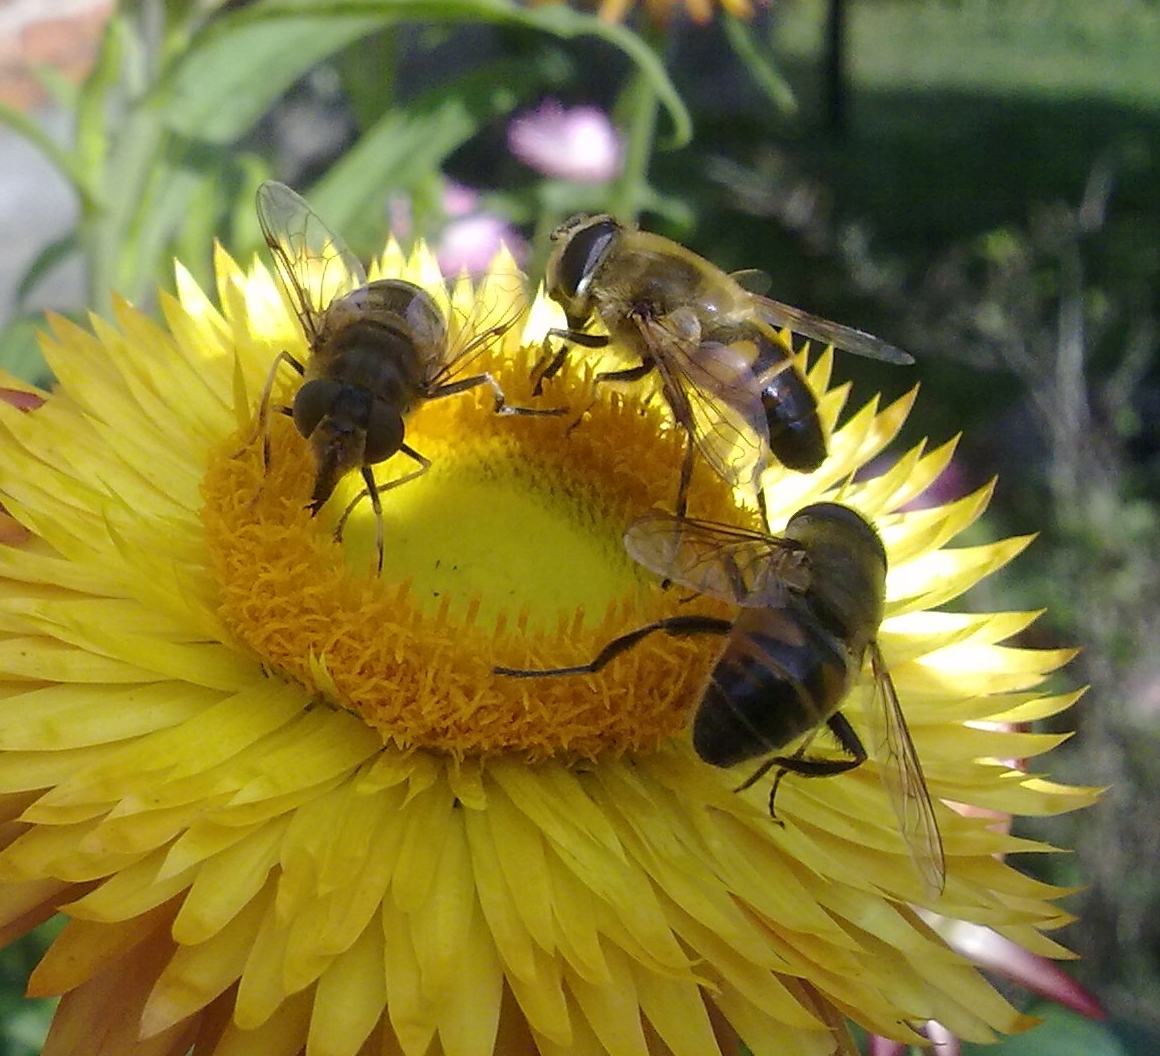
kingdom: Animalia
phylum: Arthropoda
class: Insecta
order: Diptera
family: Syrphidae
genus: Eristalis
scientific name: Eristalis tenax
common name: Drone fly
